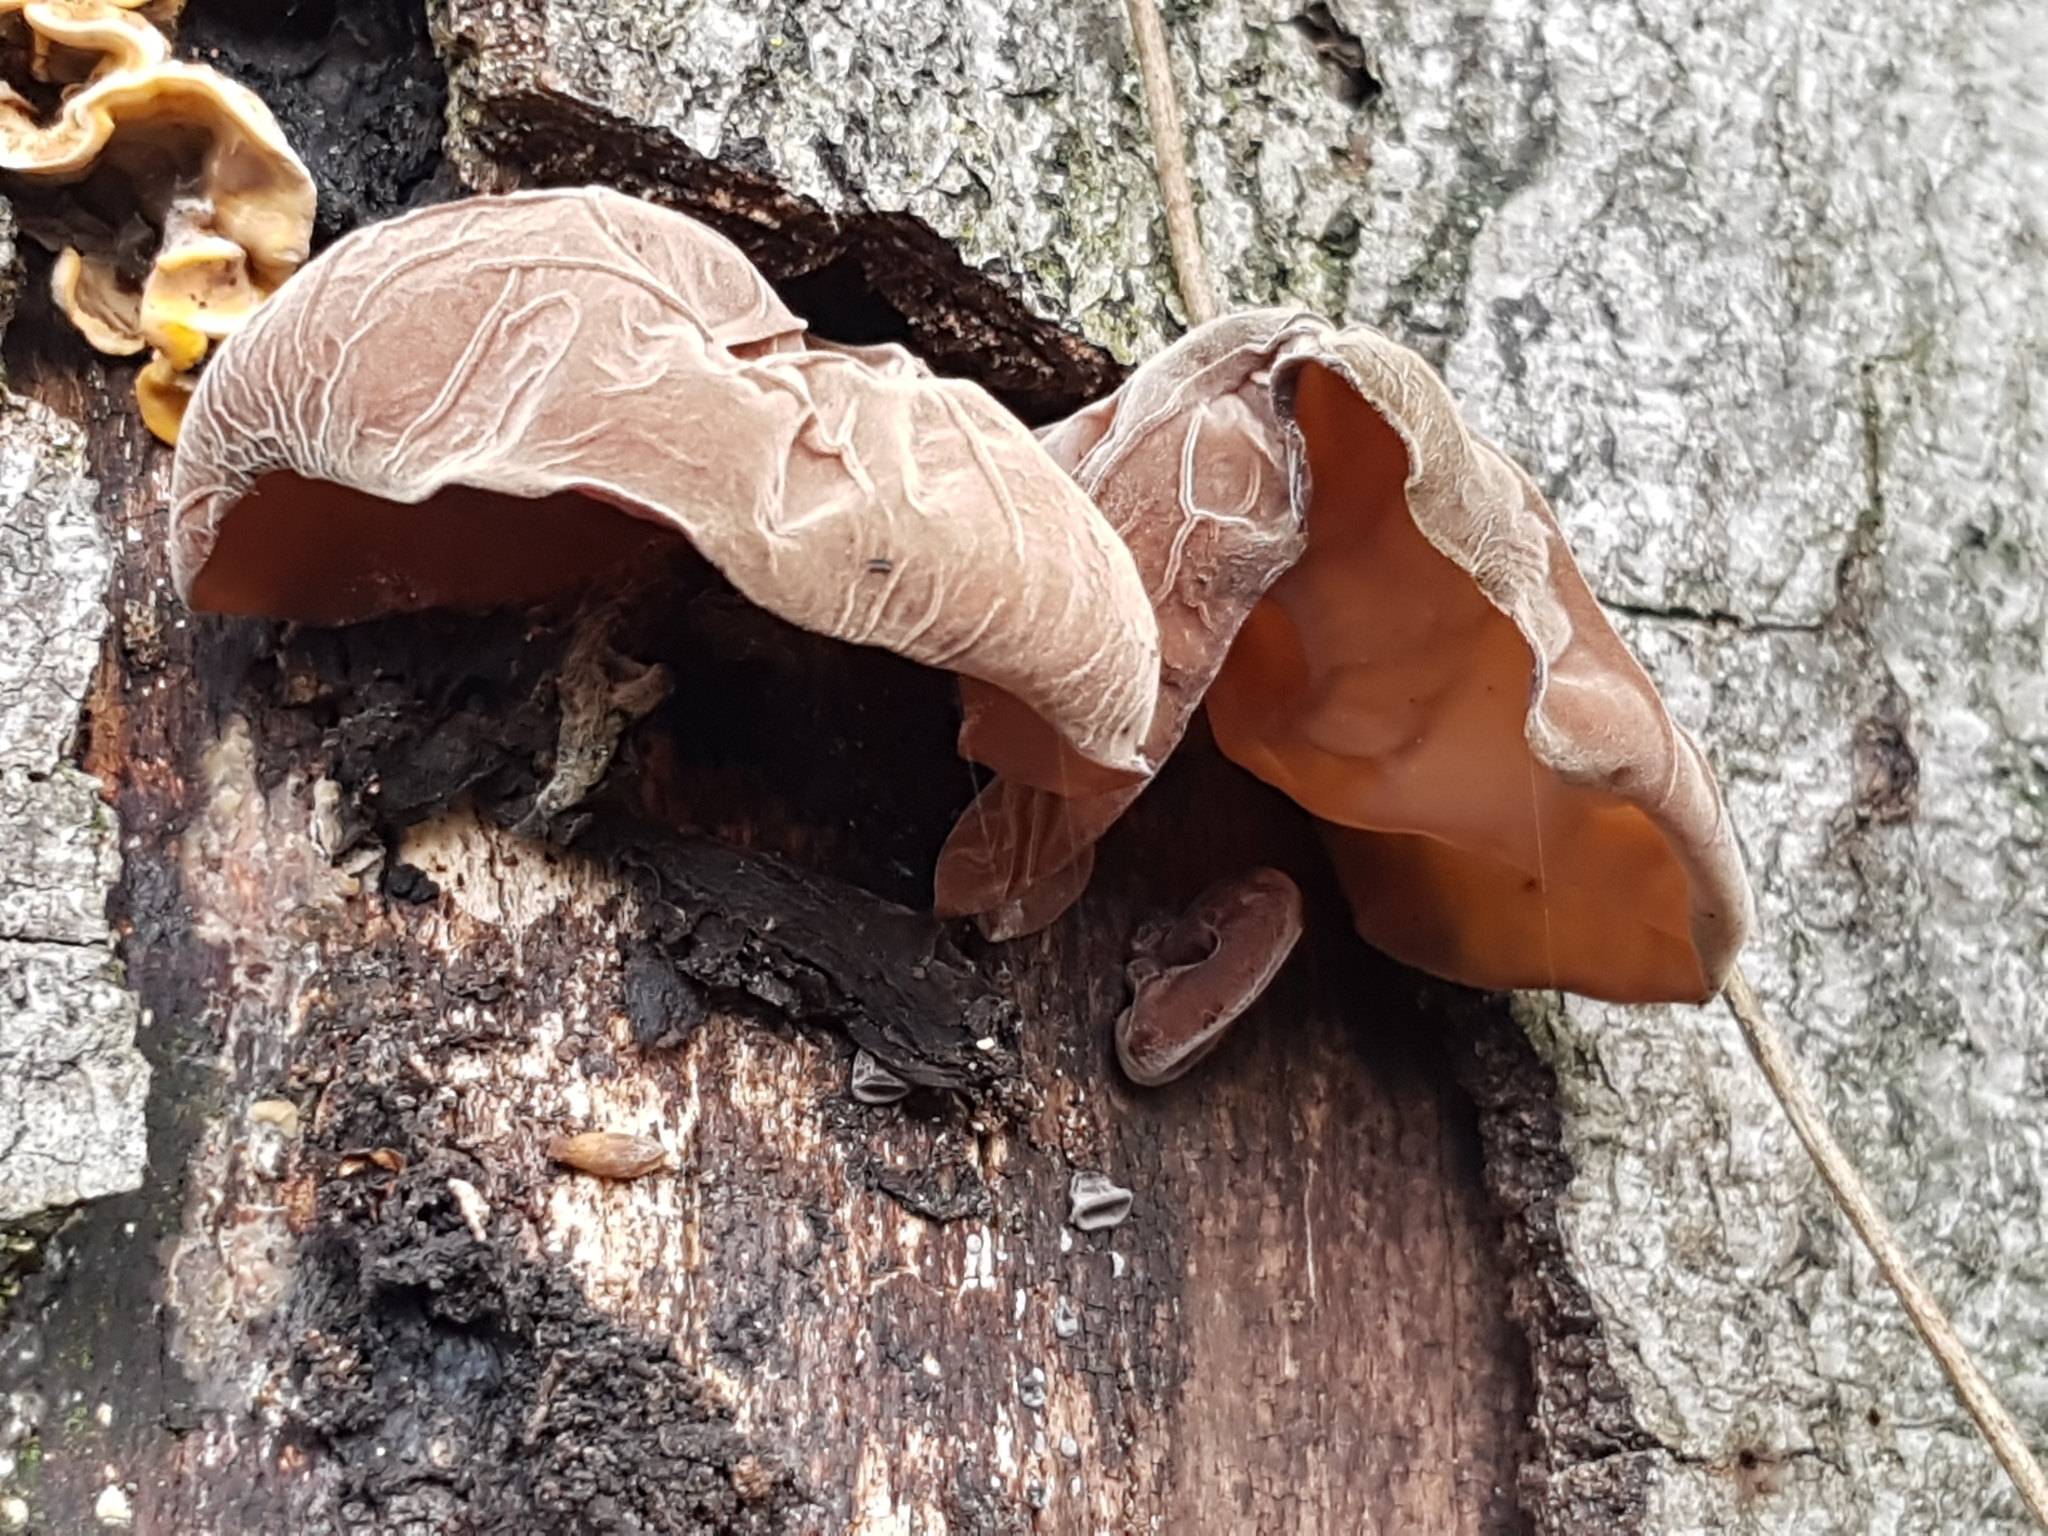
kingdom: Fungi
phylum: Basidiomycota
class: Agaricomycetes
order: Auriculariales
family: Auriculariaceae
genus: Auricularia
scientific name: Auricularia auricula-judae
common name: Jelly ear
